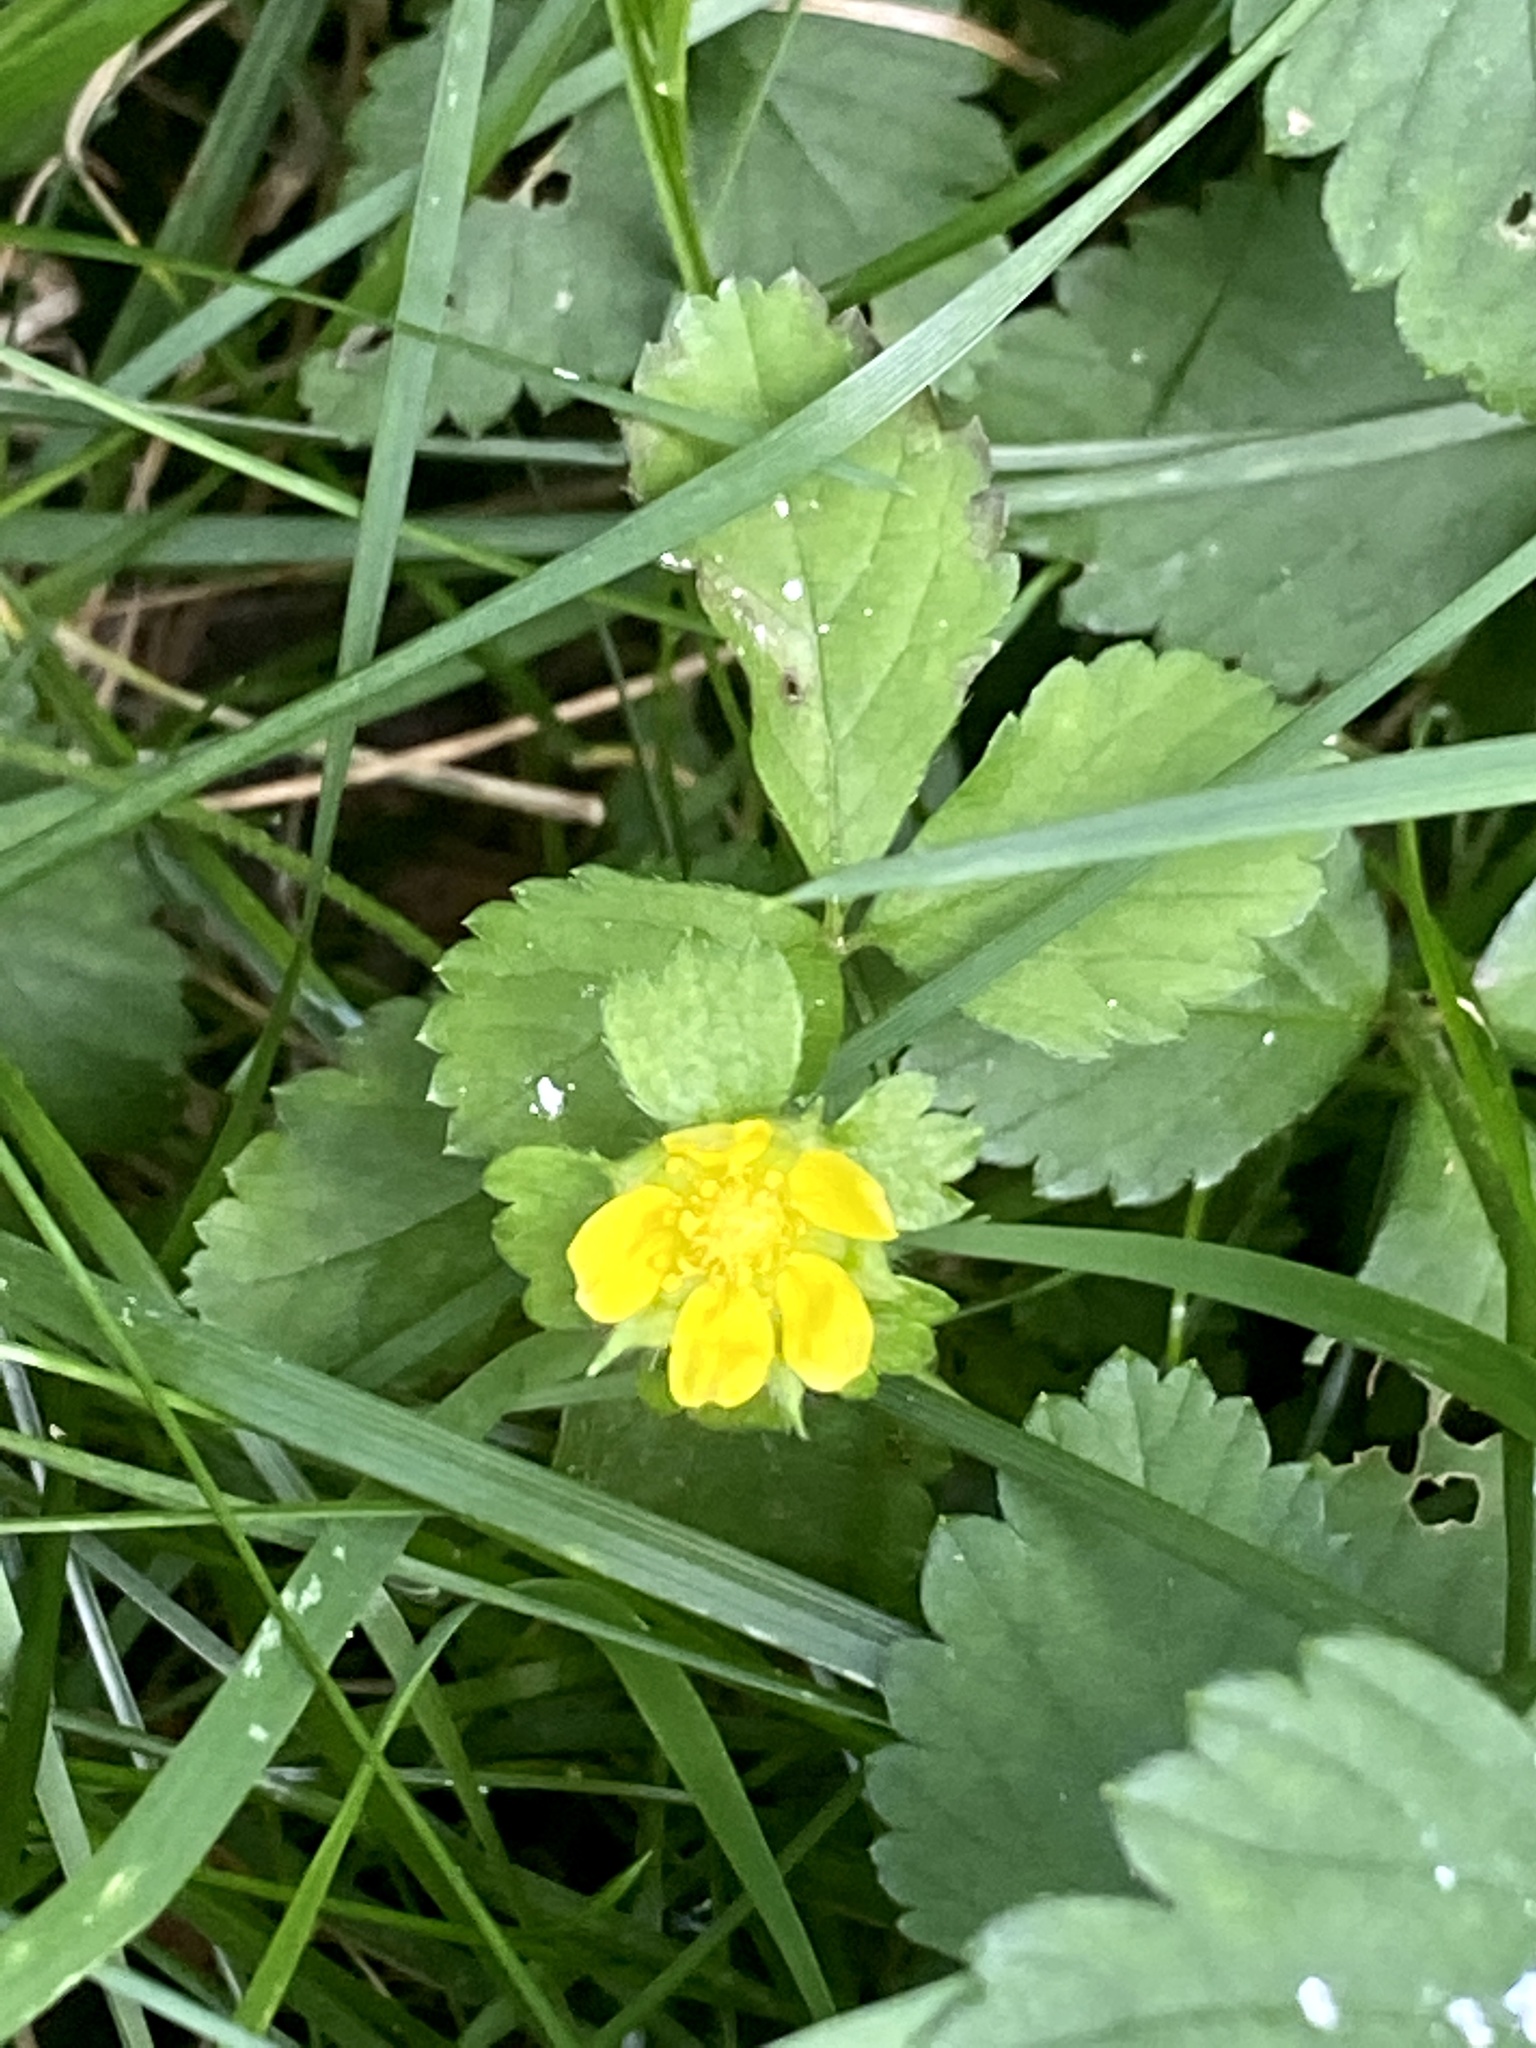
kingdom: Plantae
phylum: Tracheophyta
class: Magnoliopsida
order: Rosales
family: Rosaceae
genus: Potentilla
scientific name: Potentilla indica
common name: Yellow-flowered strawberry
